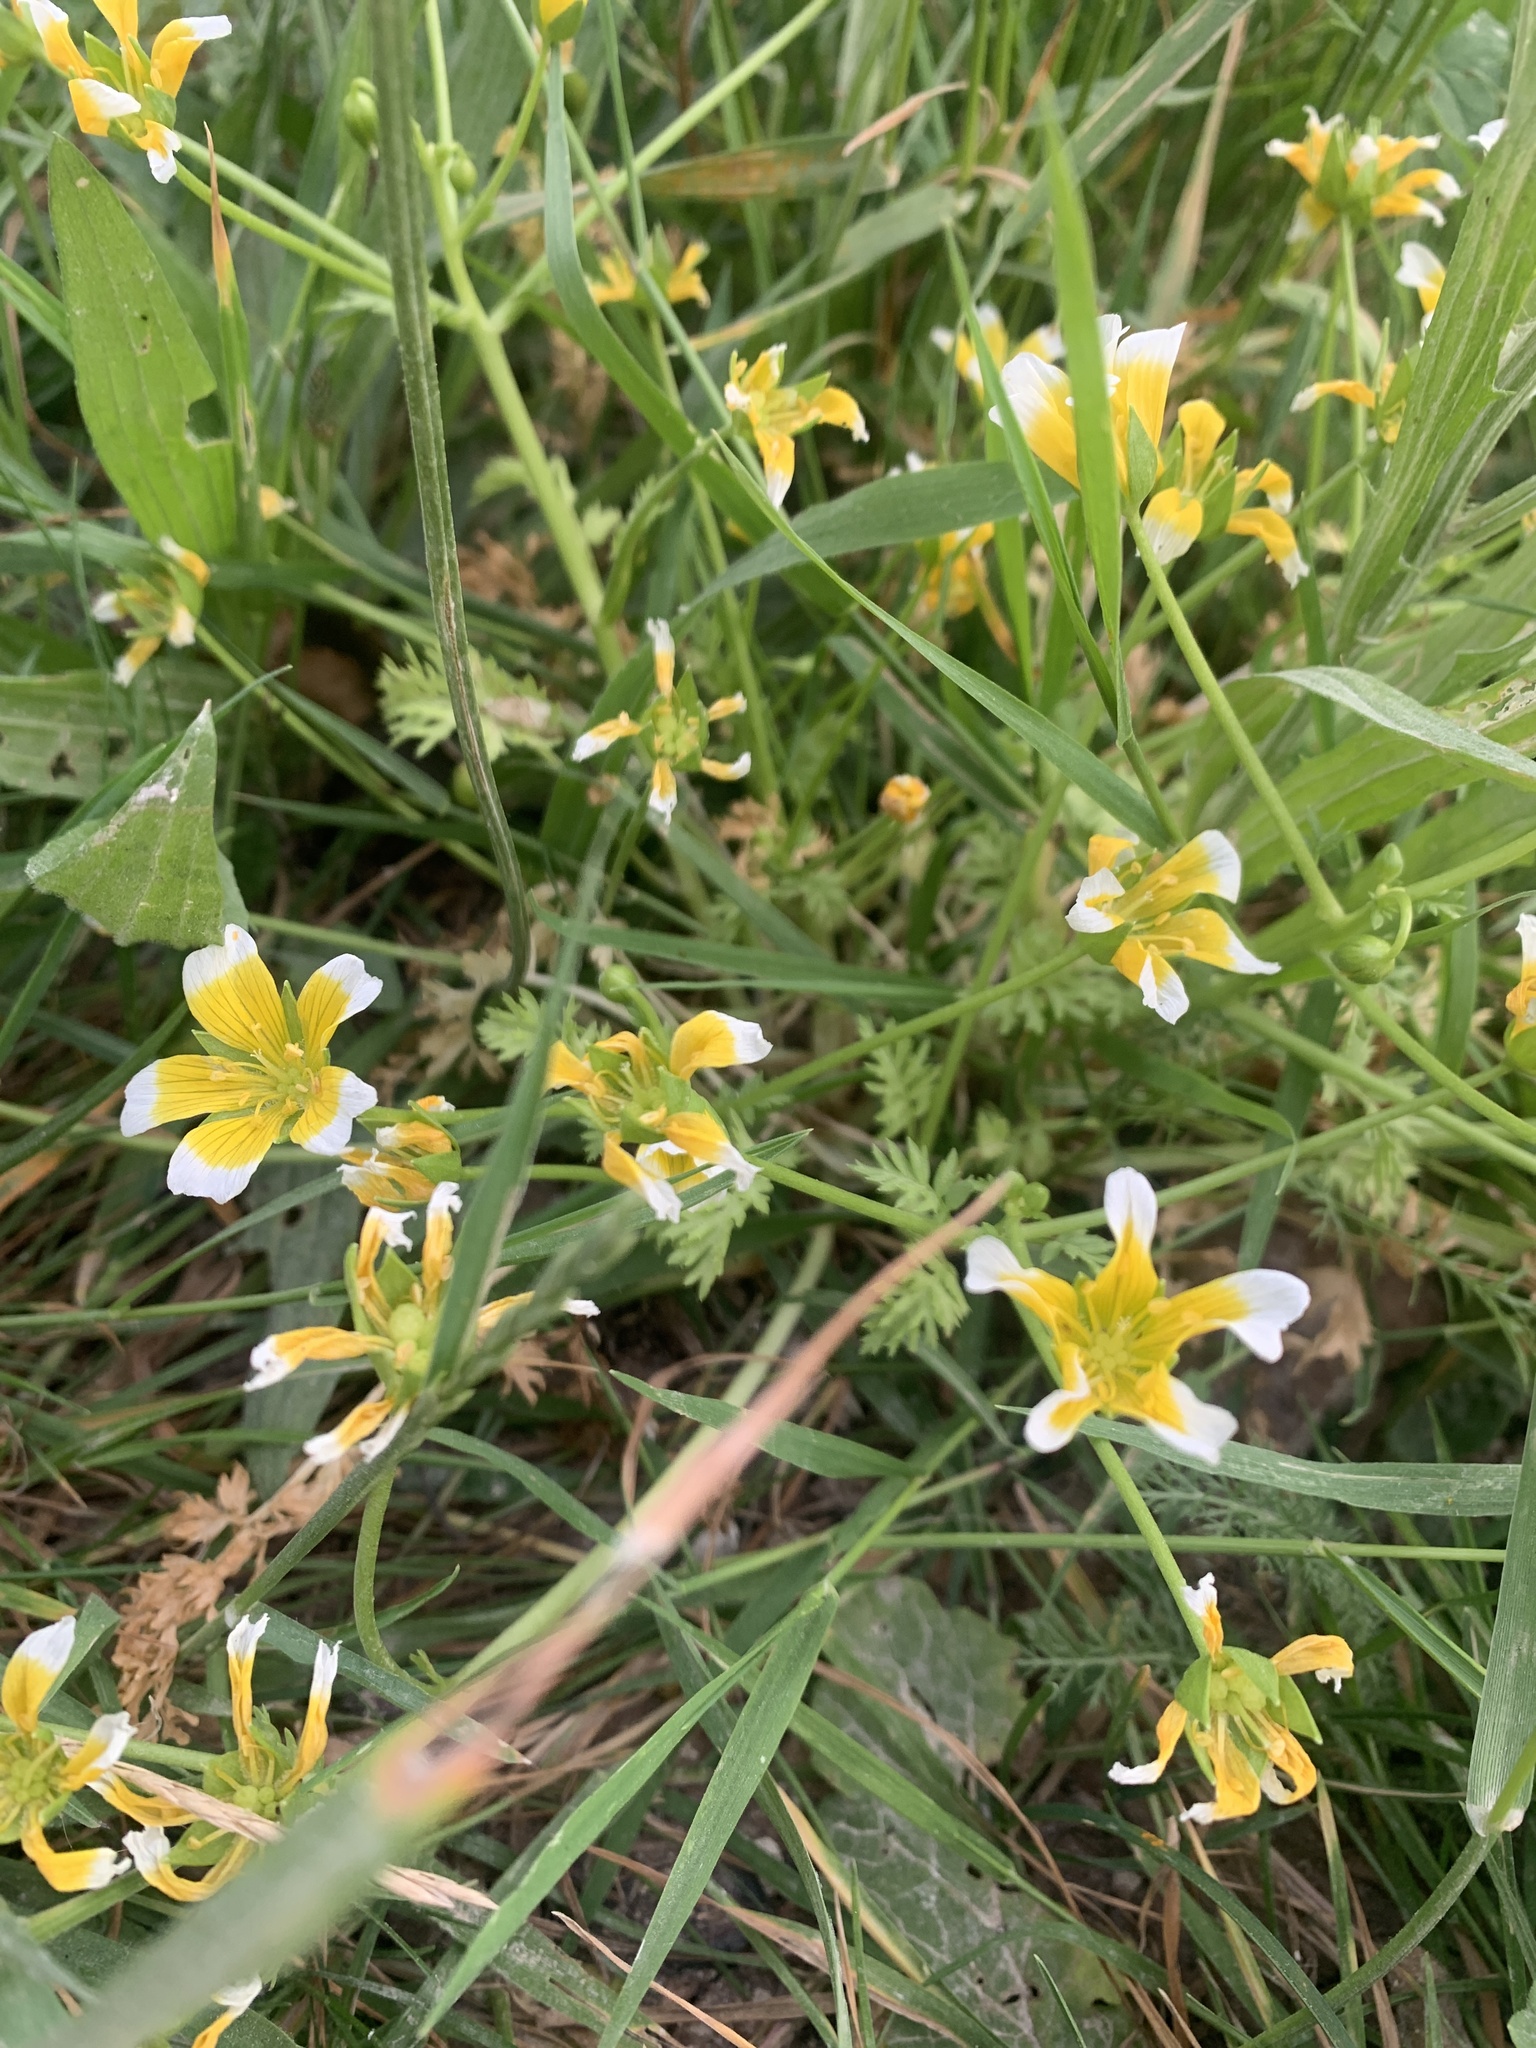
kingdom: Plantae
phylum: Tracheophyta
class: Magnoliopsida
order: Brassicales
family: Limnanthaceae
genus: Limnanthes
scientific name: Limnanthes douglasii
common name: Meadow-foam
